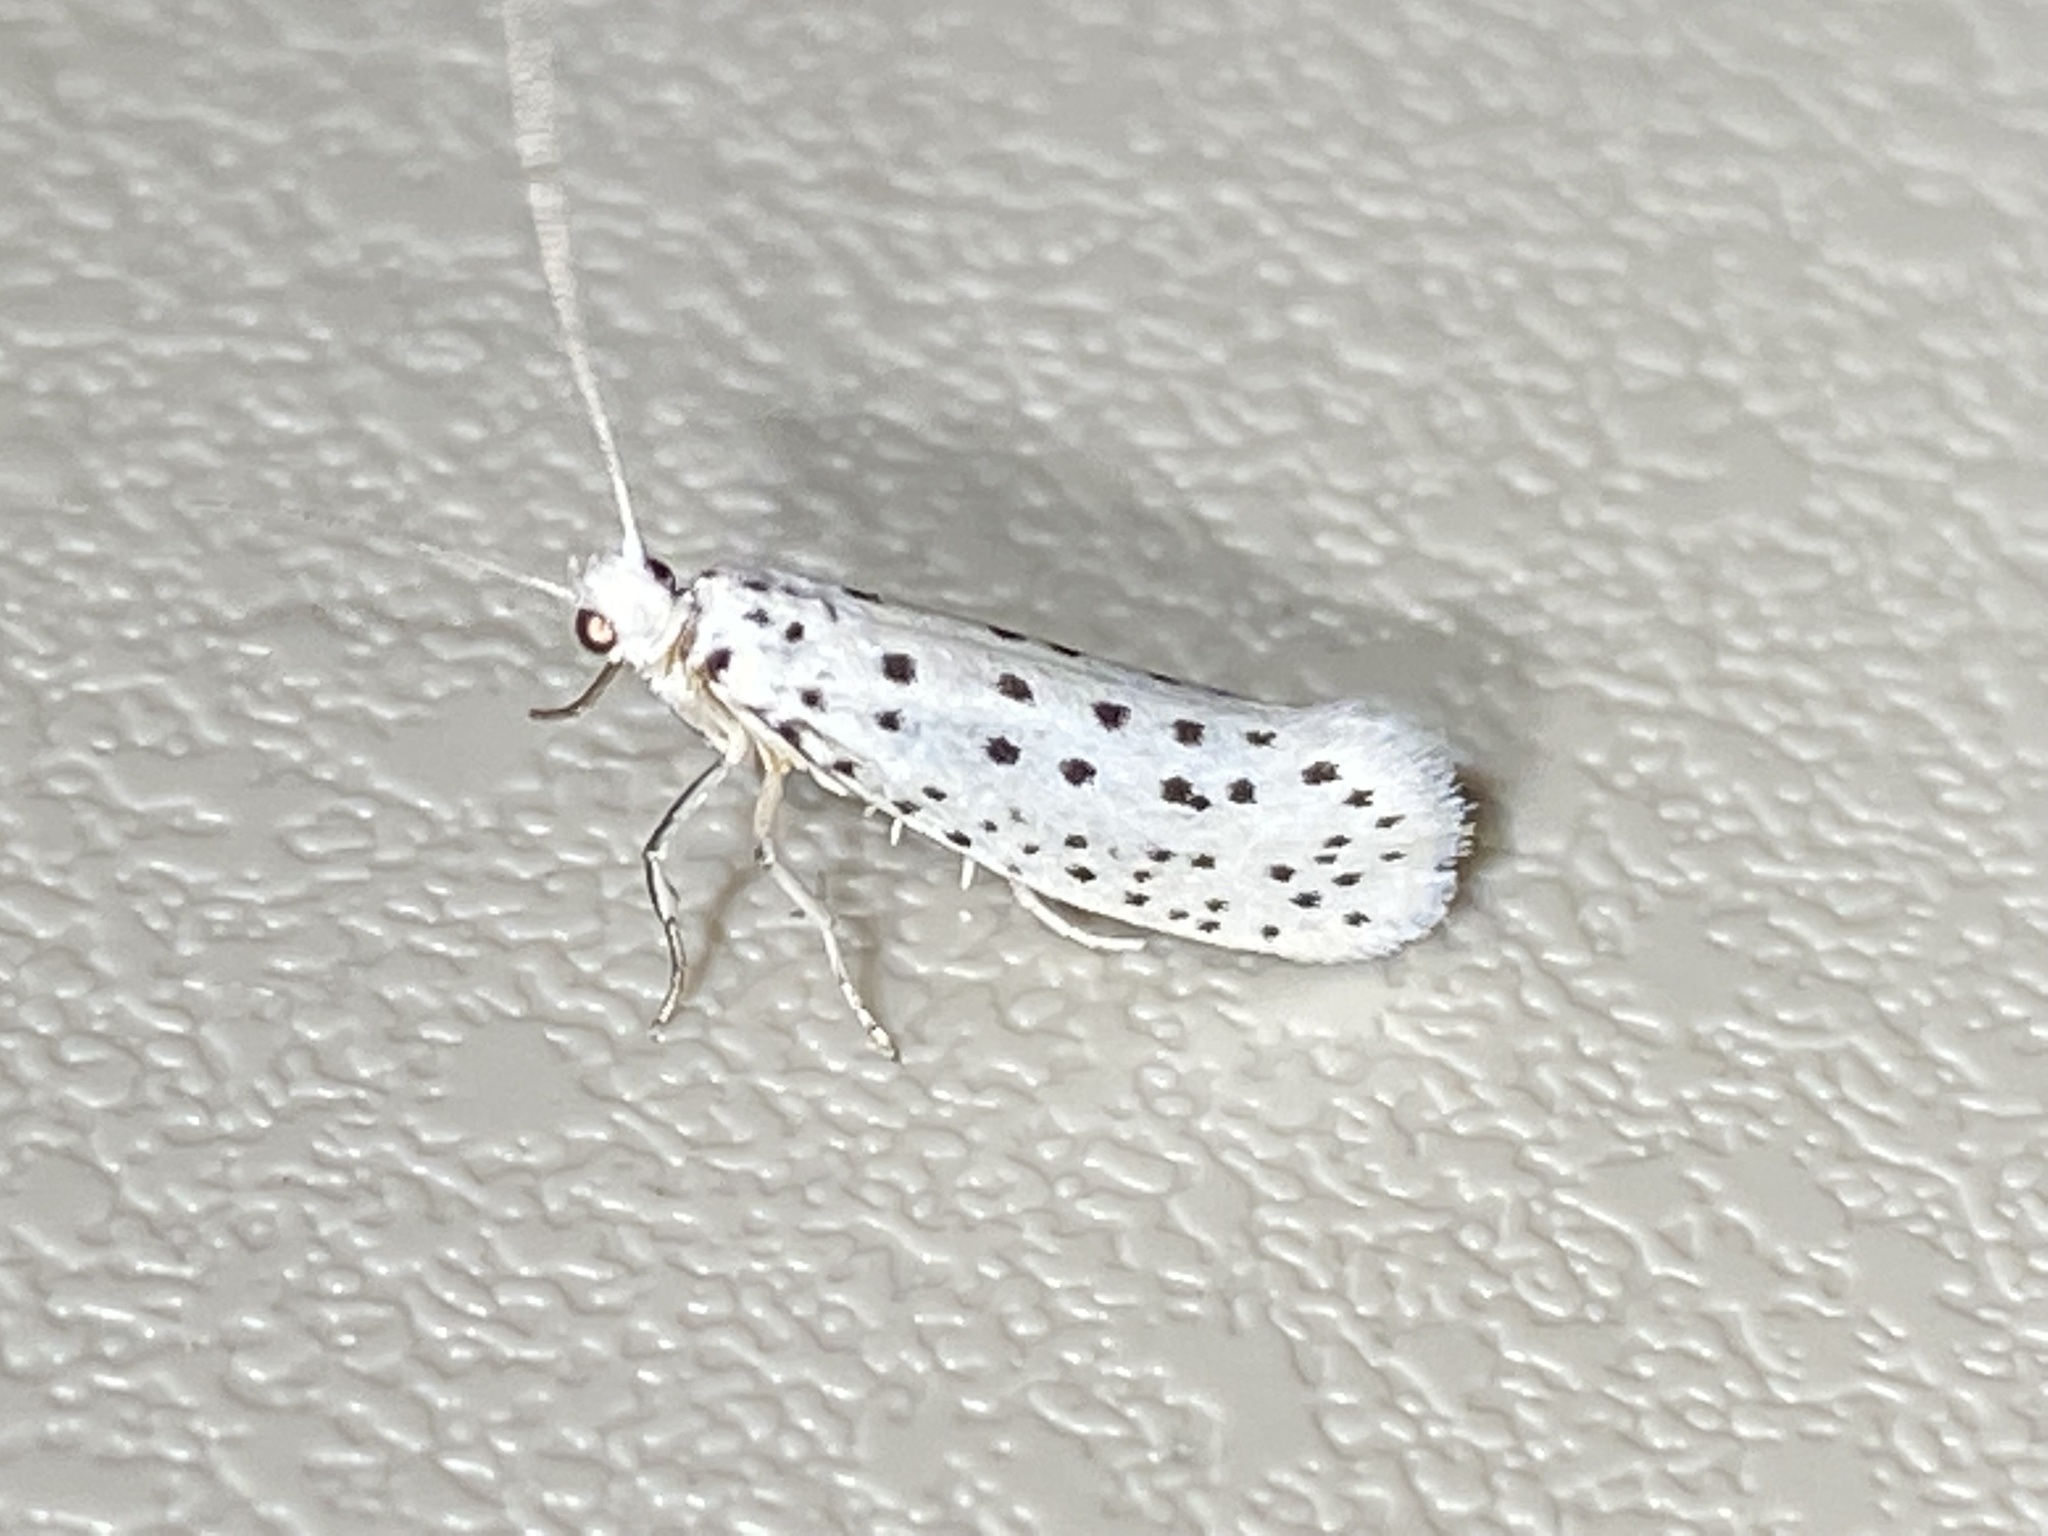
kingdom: Animalia
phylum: Arthropoda
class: Insecta
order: Lepidoptera
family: Yponomeutidae
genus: Yponomeuta
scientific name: Yponomeuta multipunctella
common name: American ermine moth
